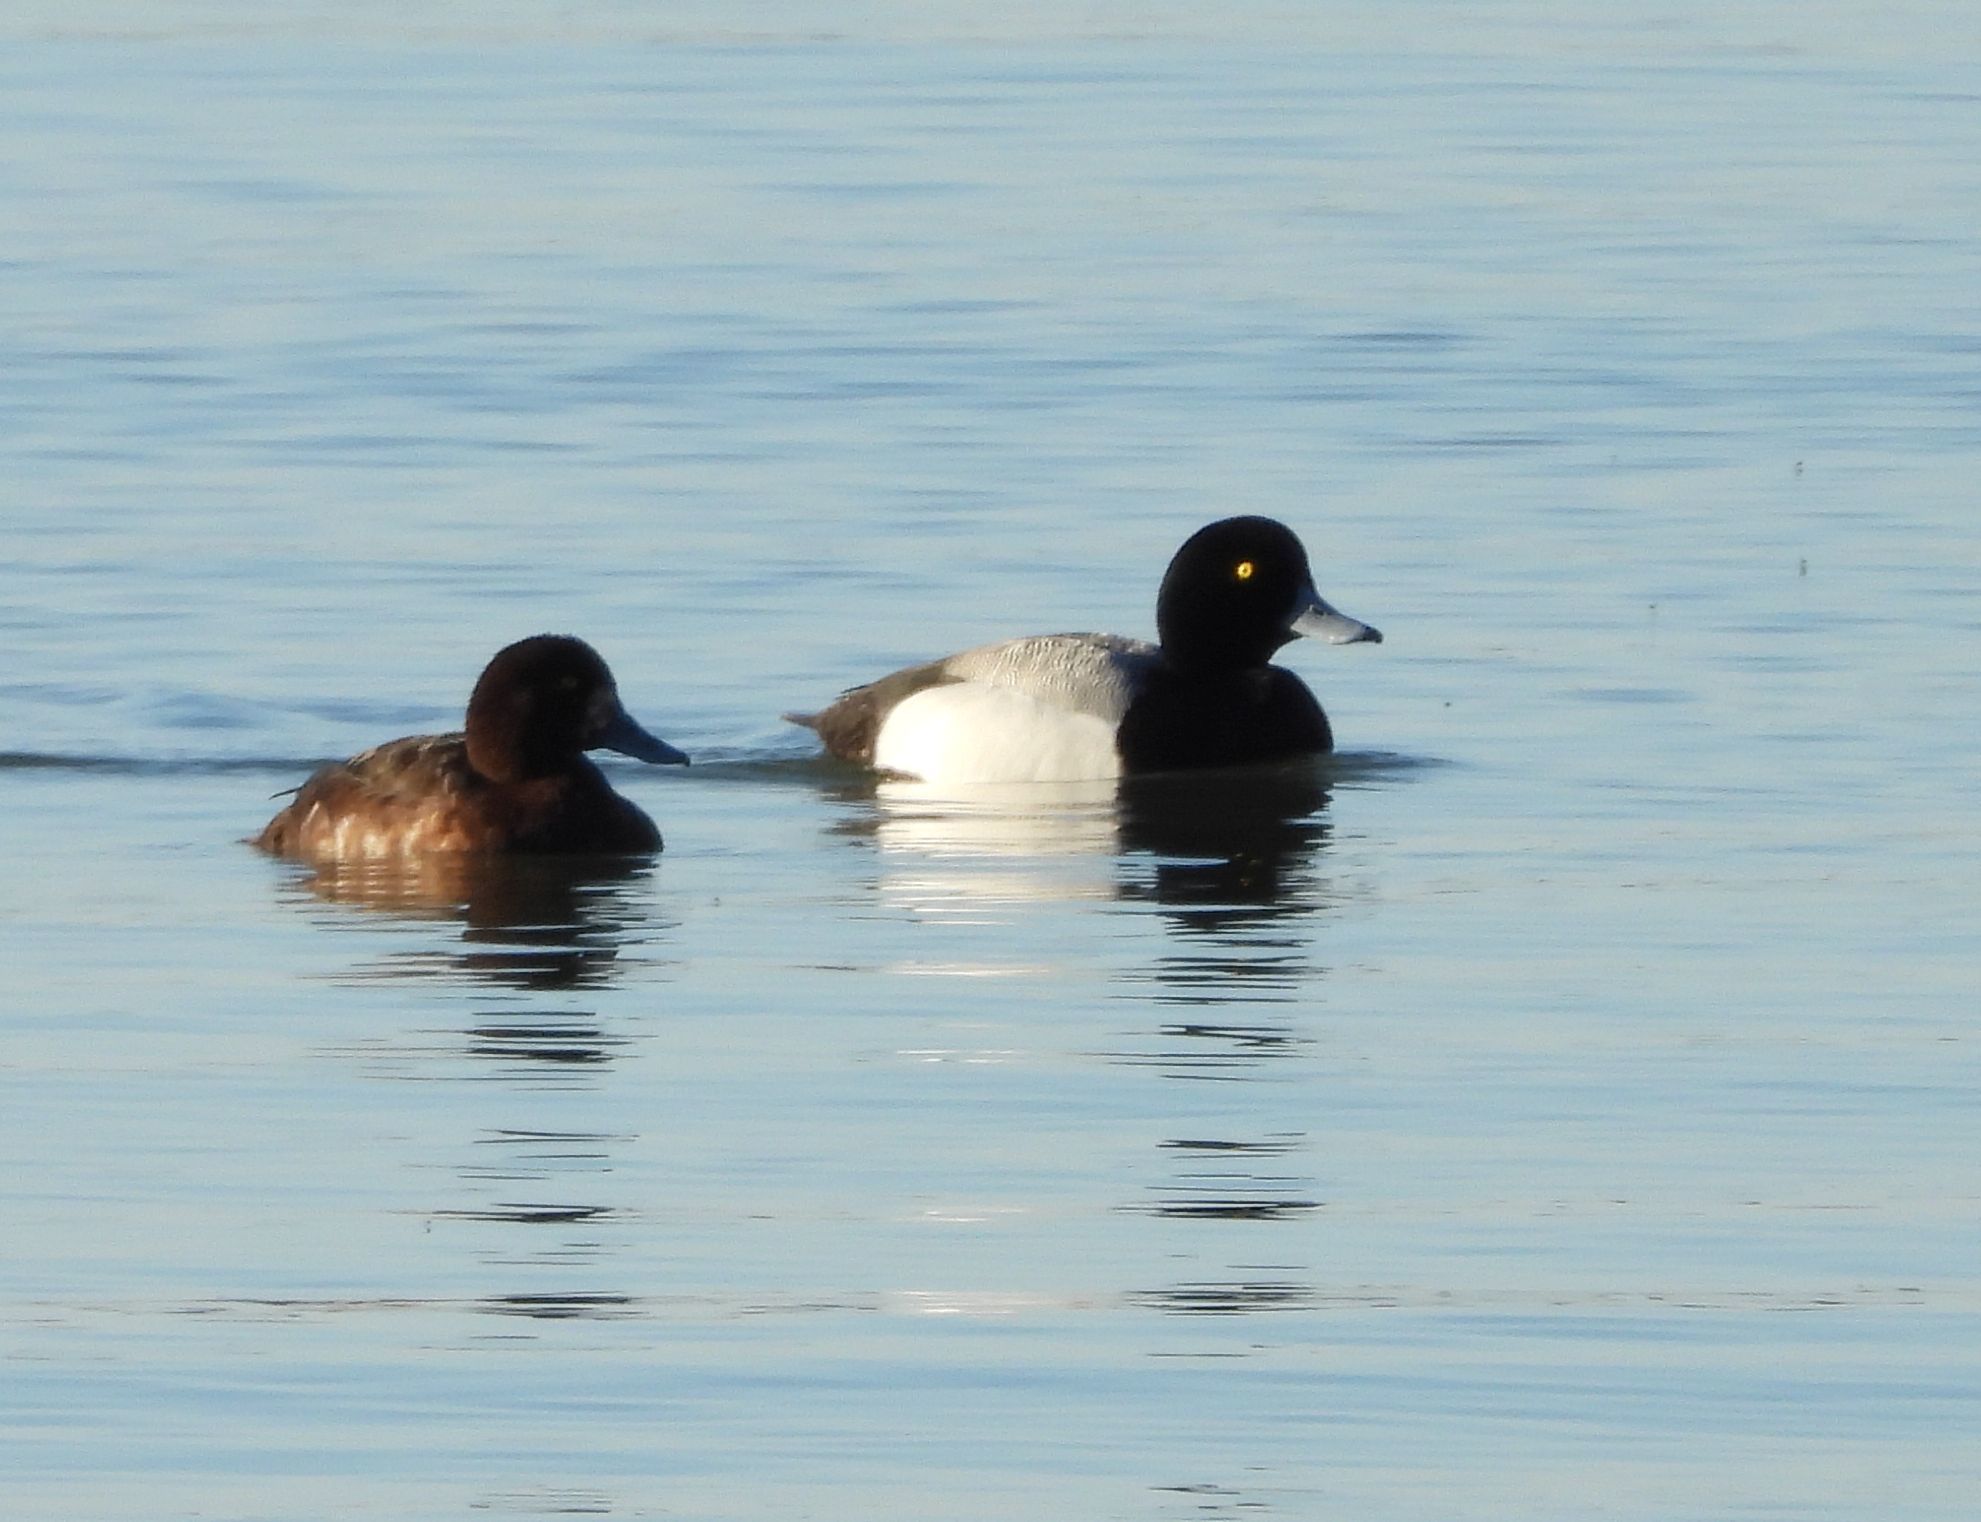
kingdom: Animalia
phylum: Chordata
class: Aves
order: Anseriformes
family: Anatidae
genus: Aythya
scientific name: Aythya marila
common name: Greater scaup
